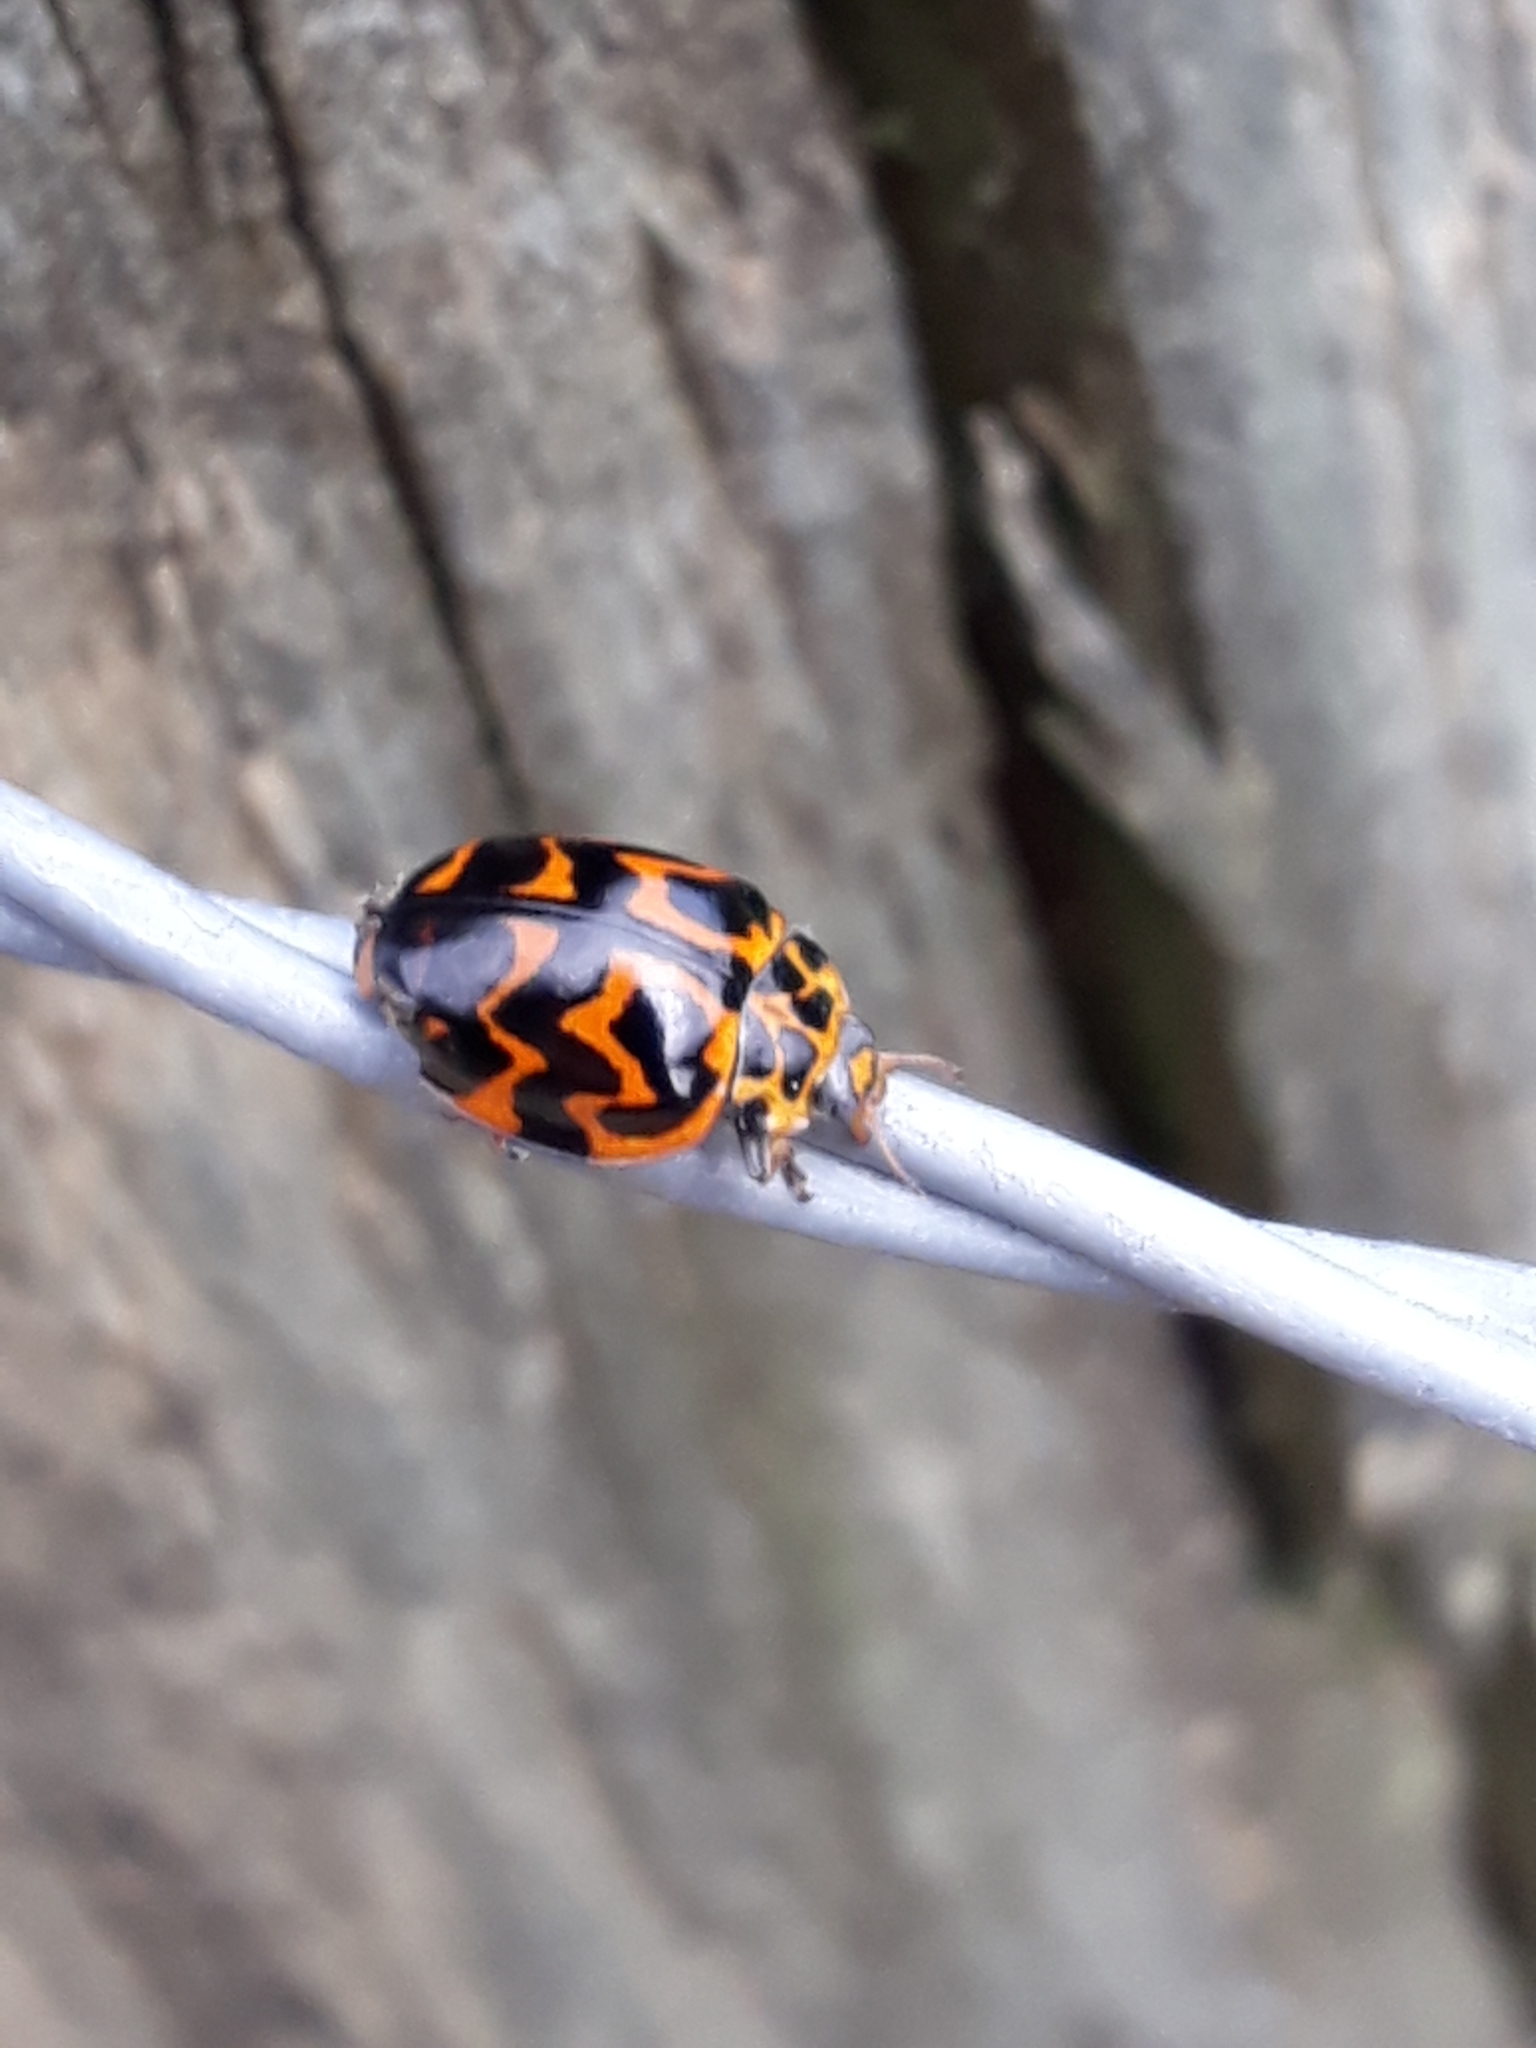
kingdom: Animalia
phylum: Arthropoda
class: Insecta
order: Coleoptera
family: Coccinellidae
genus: Cleobora
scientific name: Cleobora
